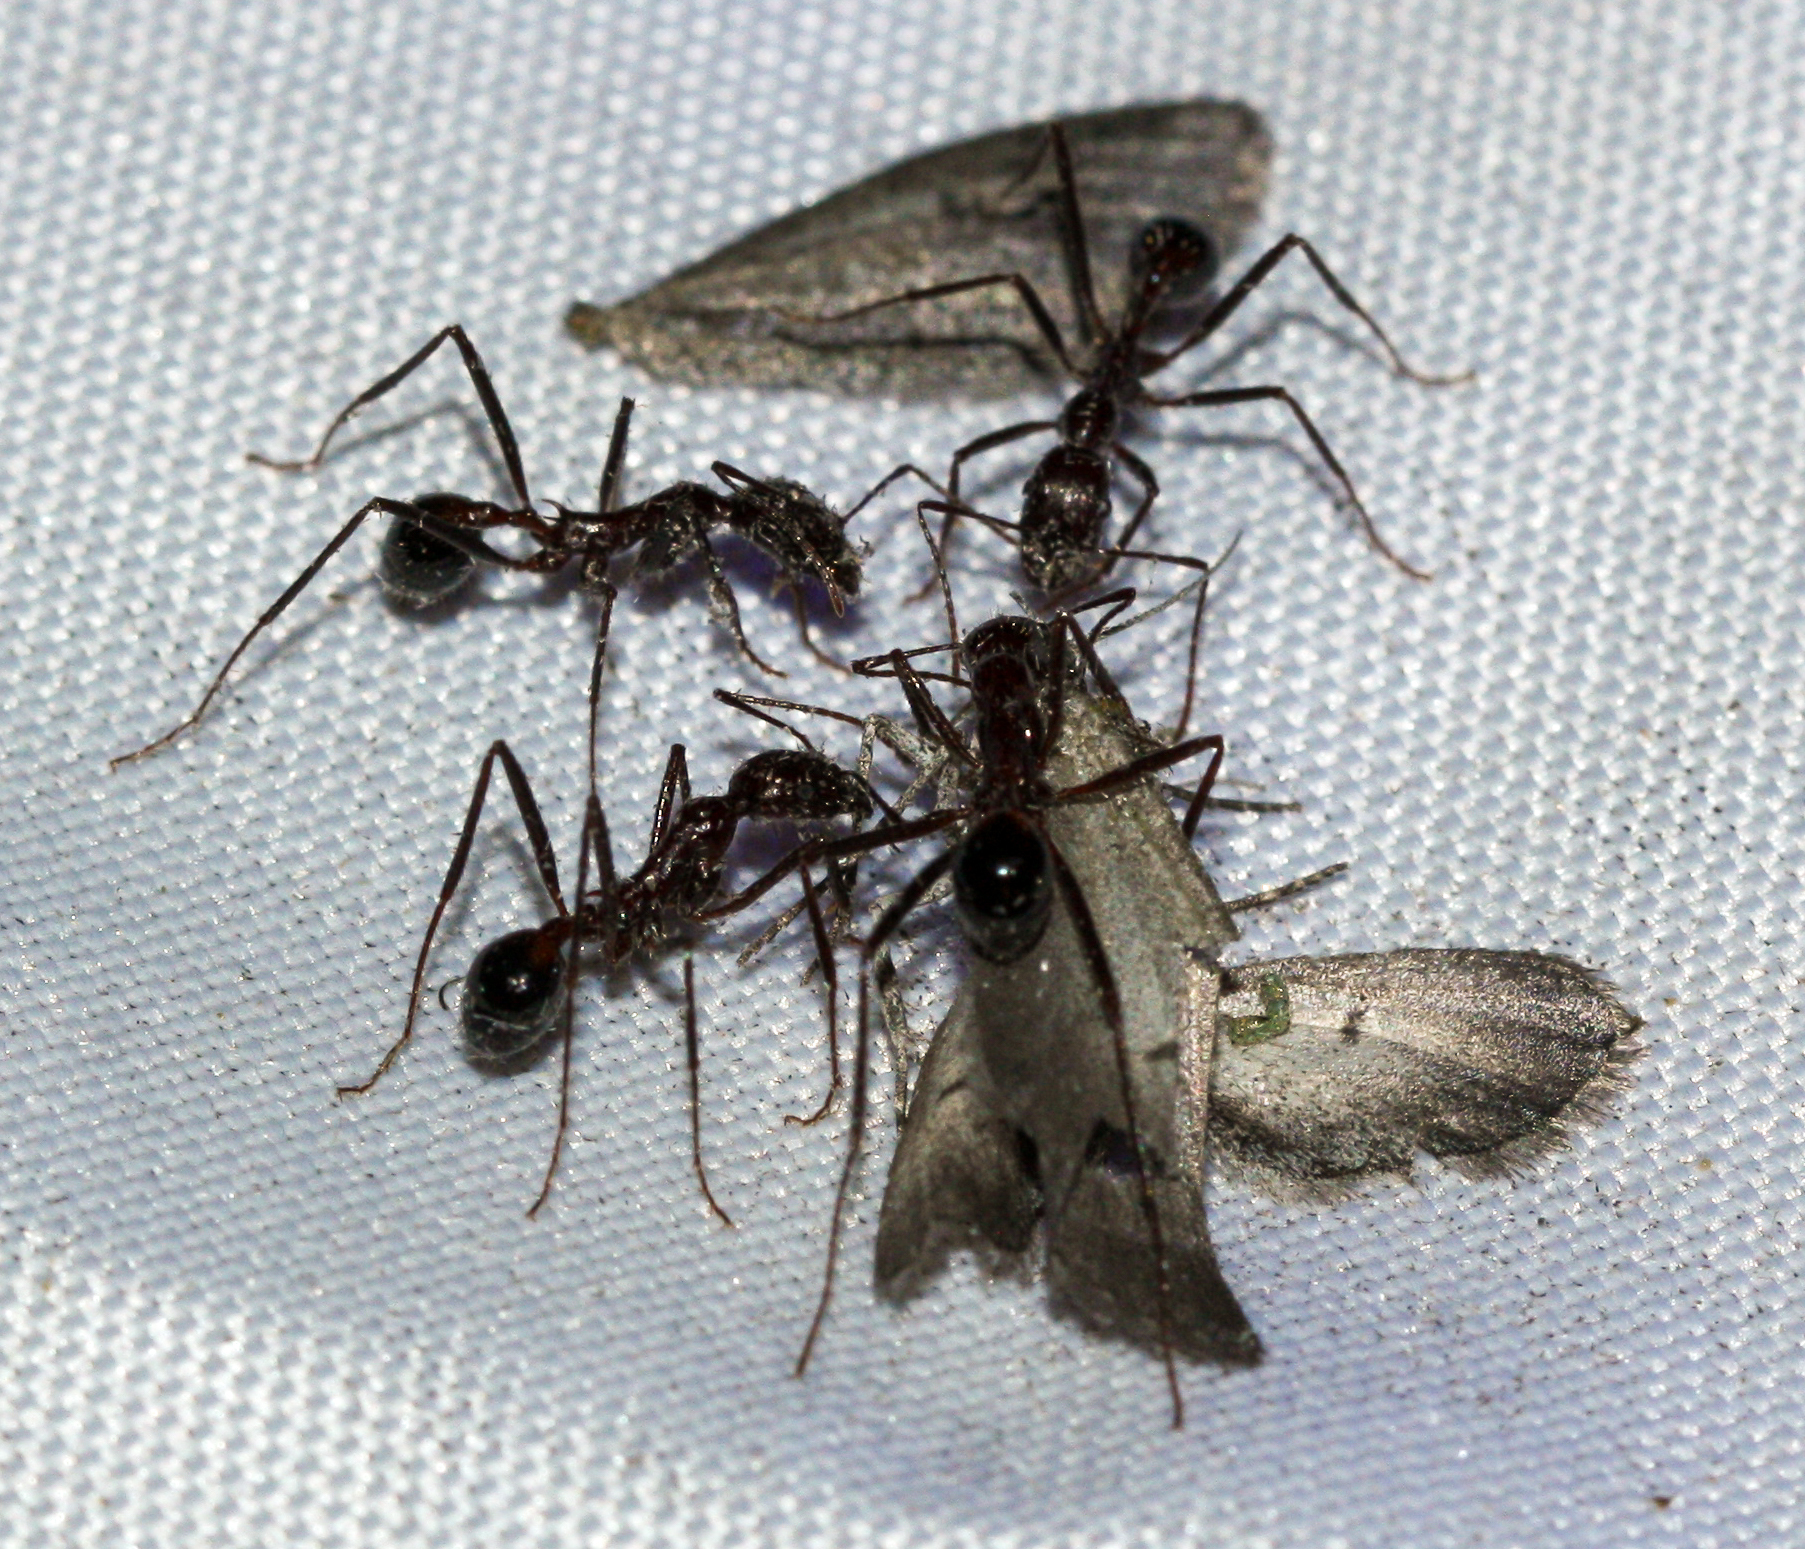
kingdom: Animalia
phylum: Arthropoda
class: Insecta
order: Hymenoptera
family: Formicidae
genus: Novomessor
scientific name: Novomessor cockerelli
